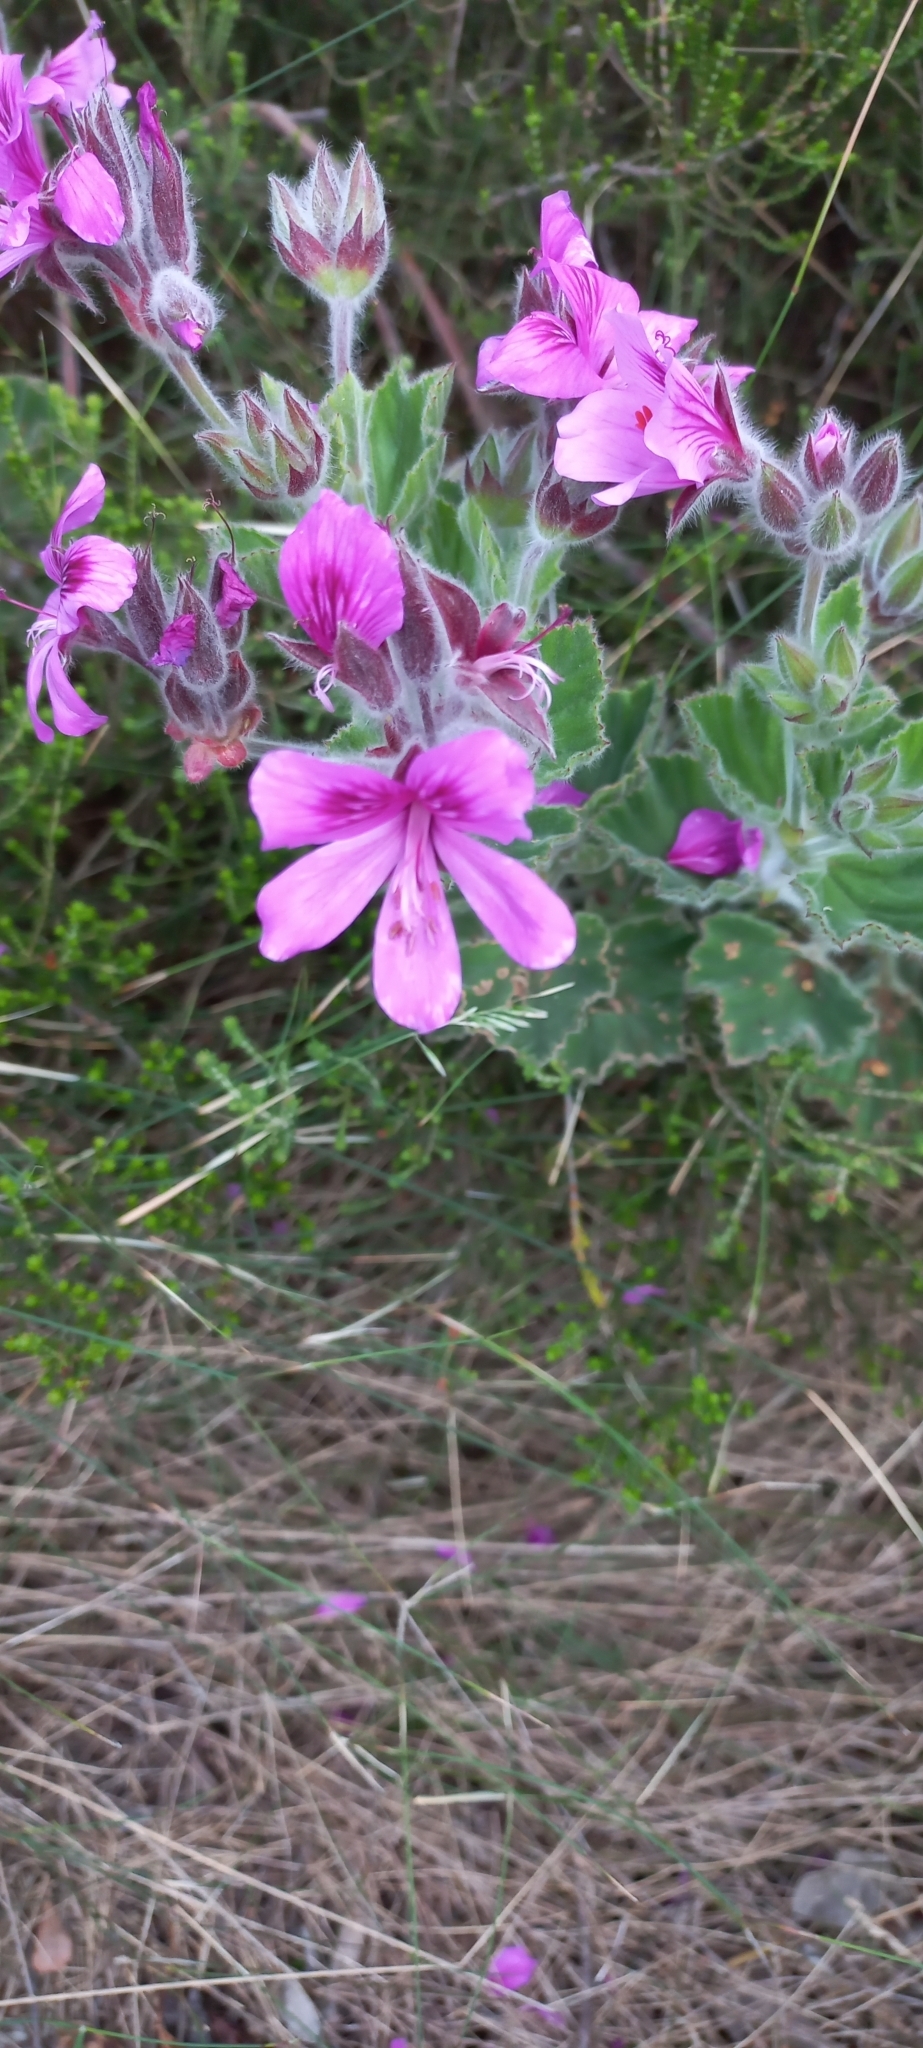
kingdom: Plantae
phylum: Tracheophyta
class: Magnoliopsida
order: Geraniales
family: Geraniaceae
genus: Pelargonium
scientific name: Pelargonium cucullatum
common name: Tree pelargonium
